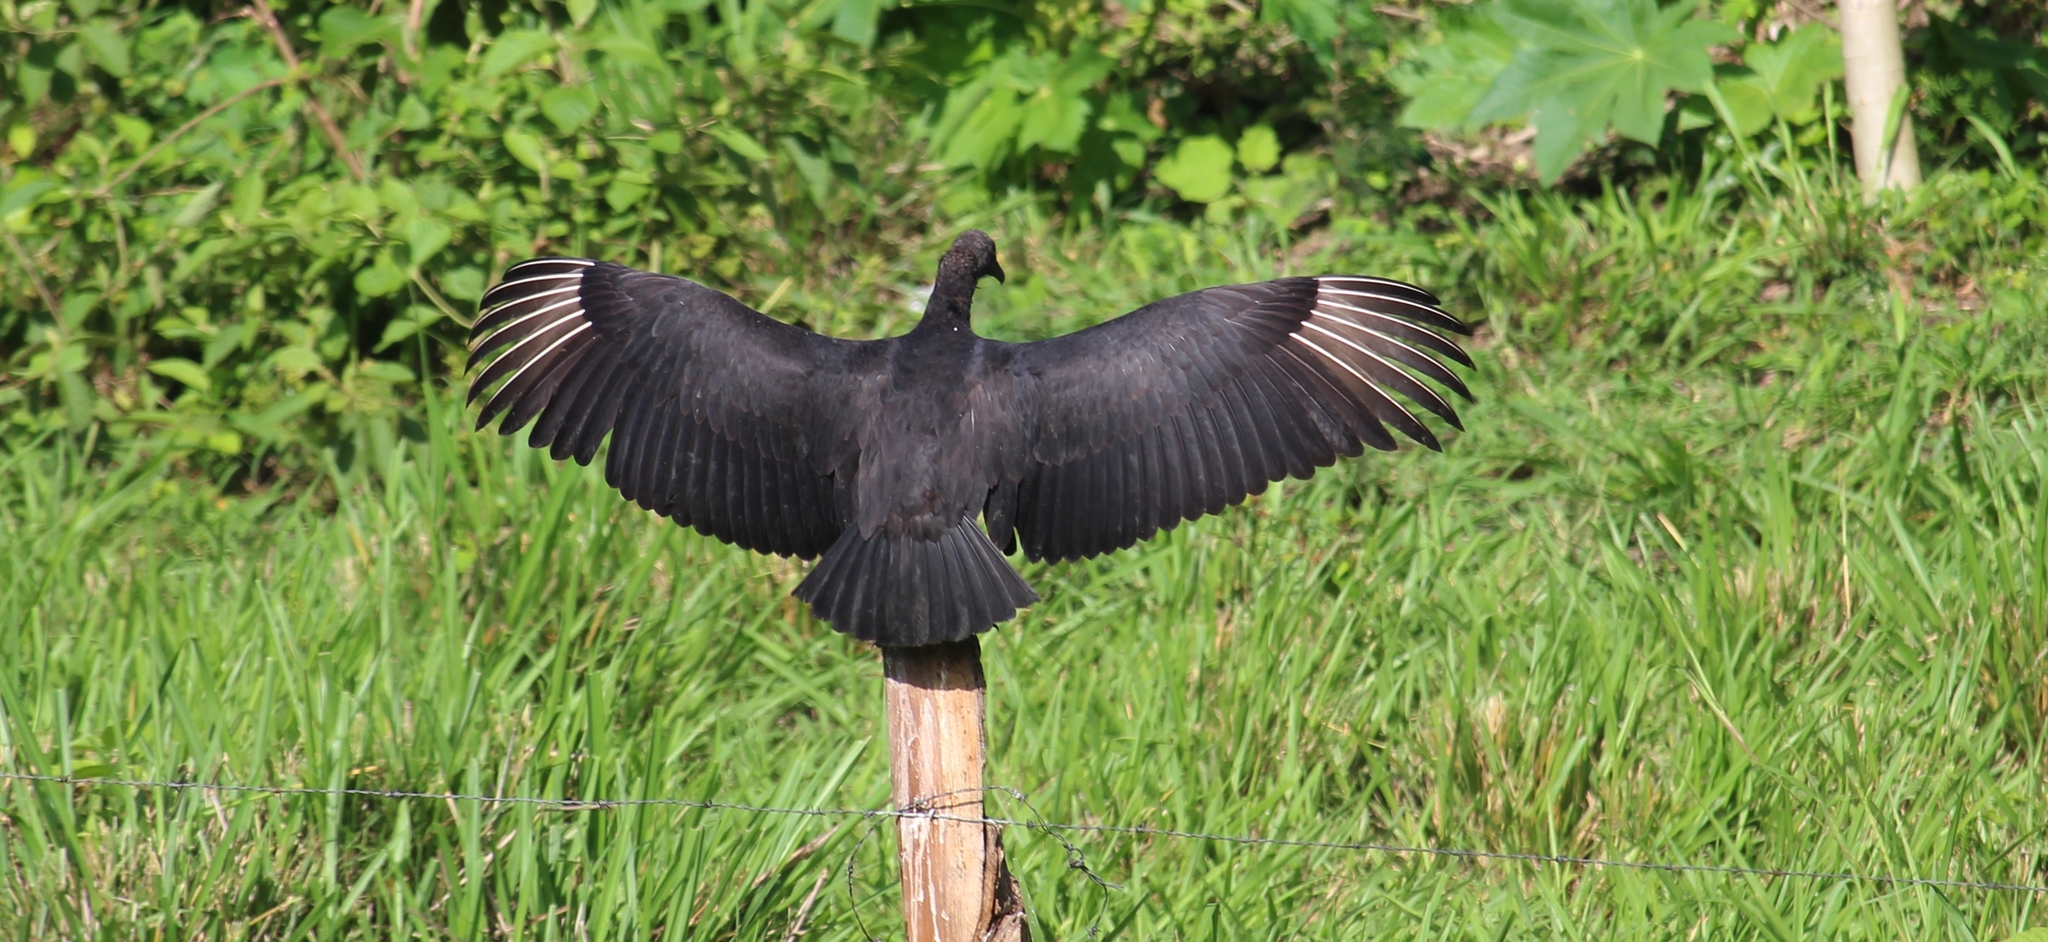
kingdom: Animalia
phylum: Chordata
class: Aves
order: Accipitriformes
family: Cathartidae
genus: Coragyps
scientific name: Coragyps atratus
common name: Black vulture
